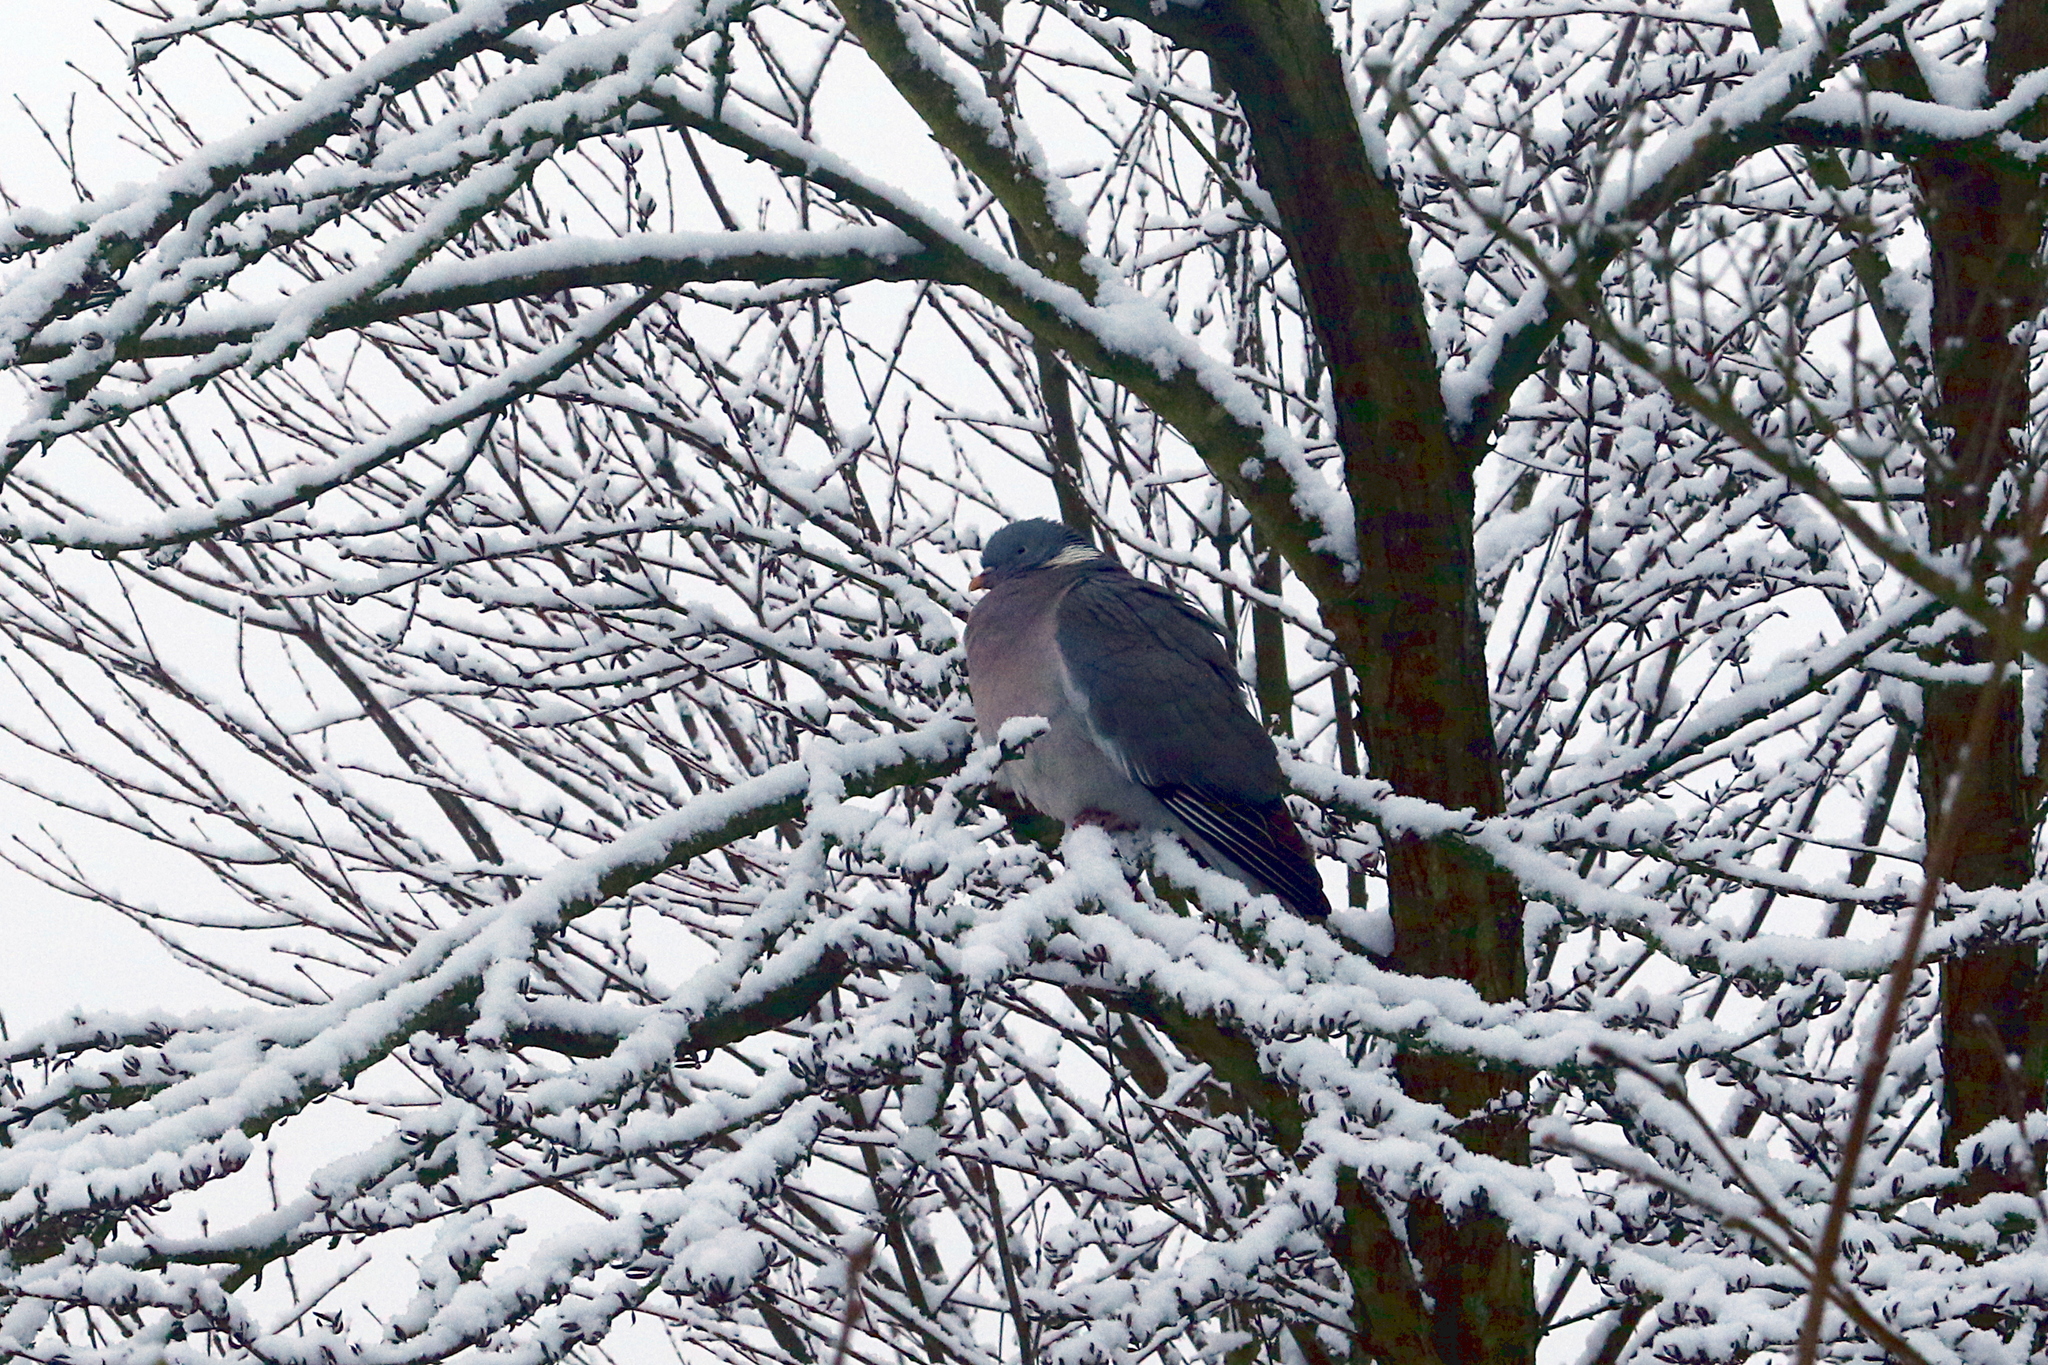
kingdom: Animalia
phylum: Chordata
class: Aves
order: Columbiformes
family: Columbidae
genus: Columba
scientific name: Columba palumbus
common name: Common wood pigeon
